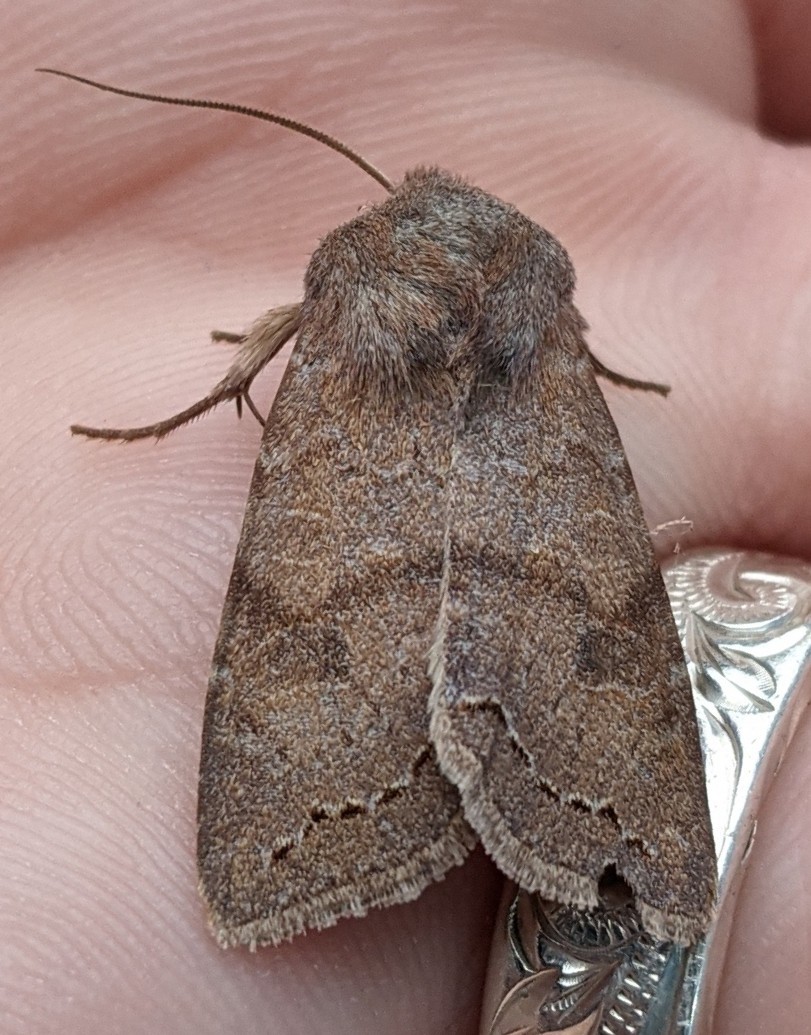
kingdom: Animalia
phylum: Arthropoda
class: Insecta
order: Lepidoptera
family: Noctuidae
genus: Orthosia
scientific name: Orthosia revicta
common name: Rusty whitesided caterpillar
